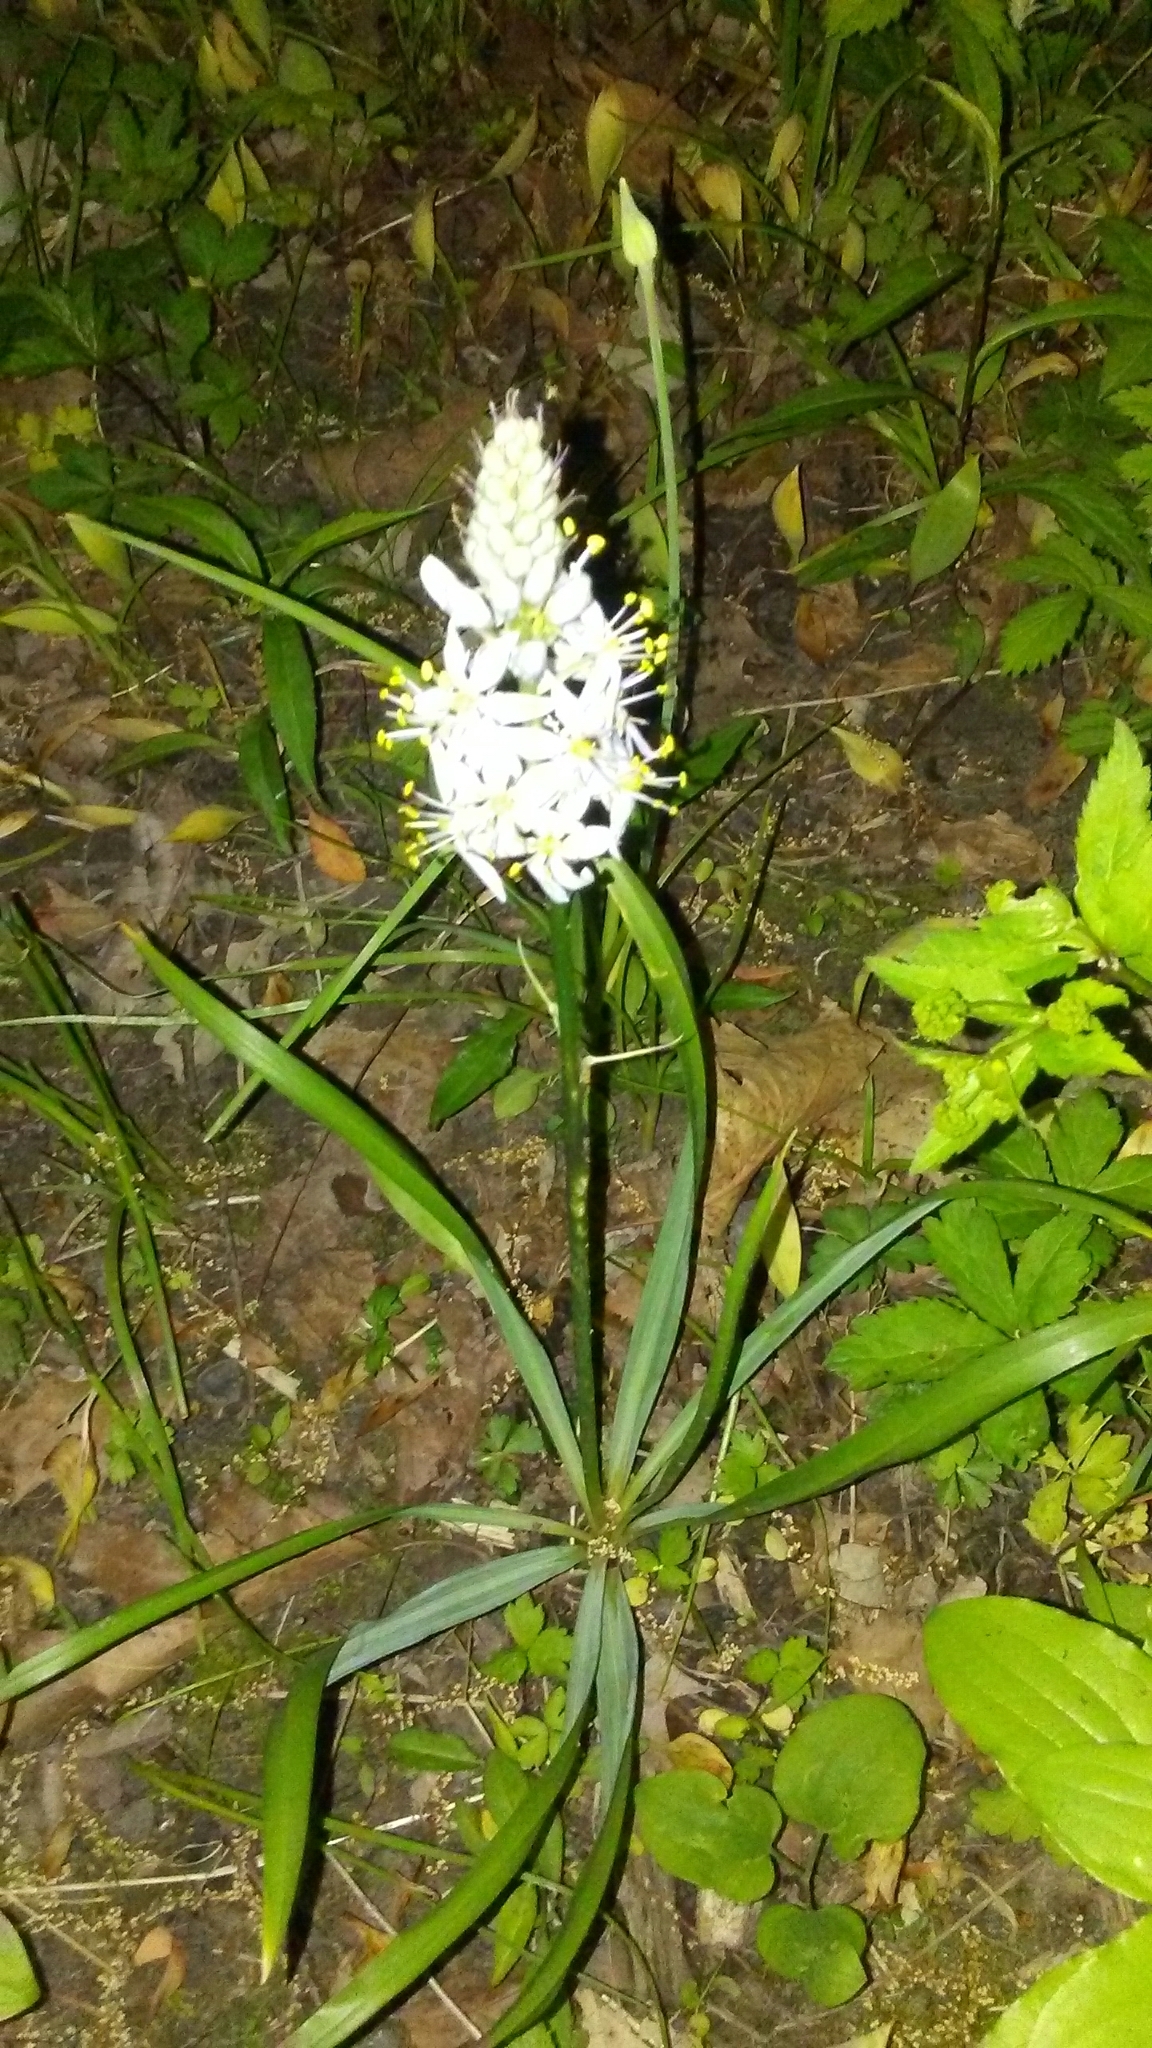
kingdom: Plantae
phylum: Tracheophyta
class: Liliopsida
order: Asparagales
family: Asparagaceae
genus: Camassia
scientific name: Camassia scilloides
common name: Wild hyacinth
